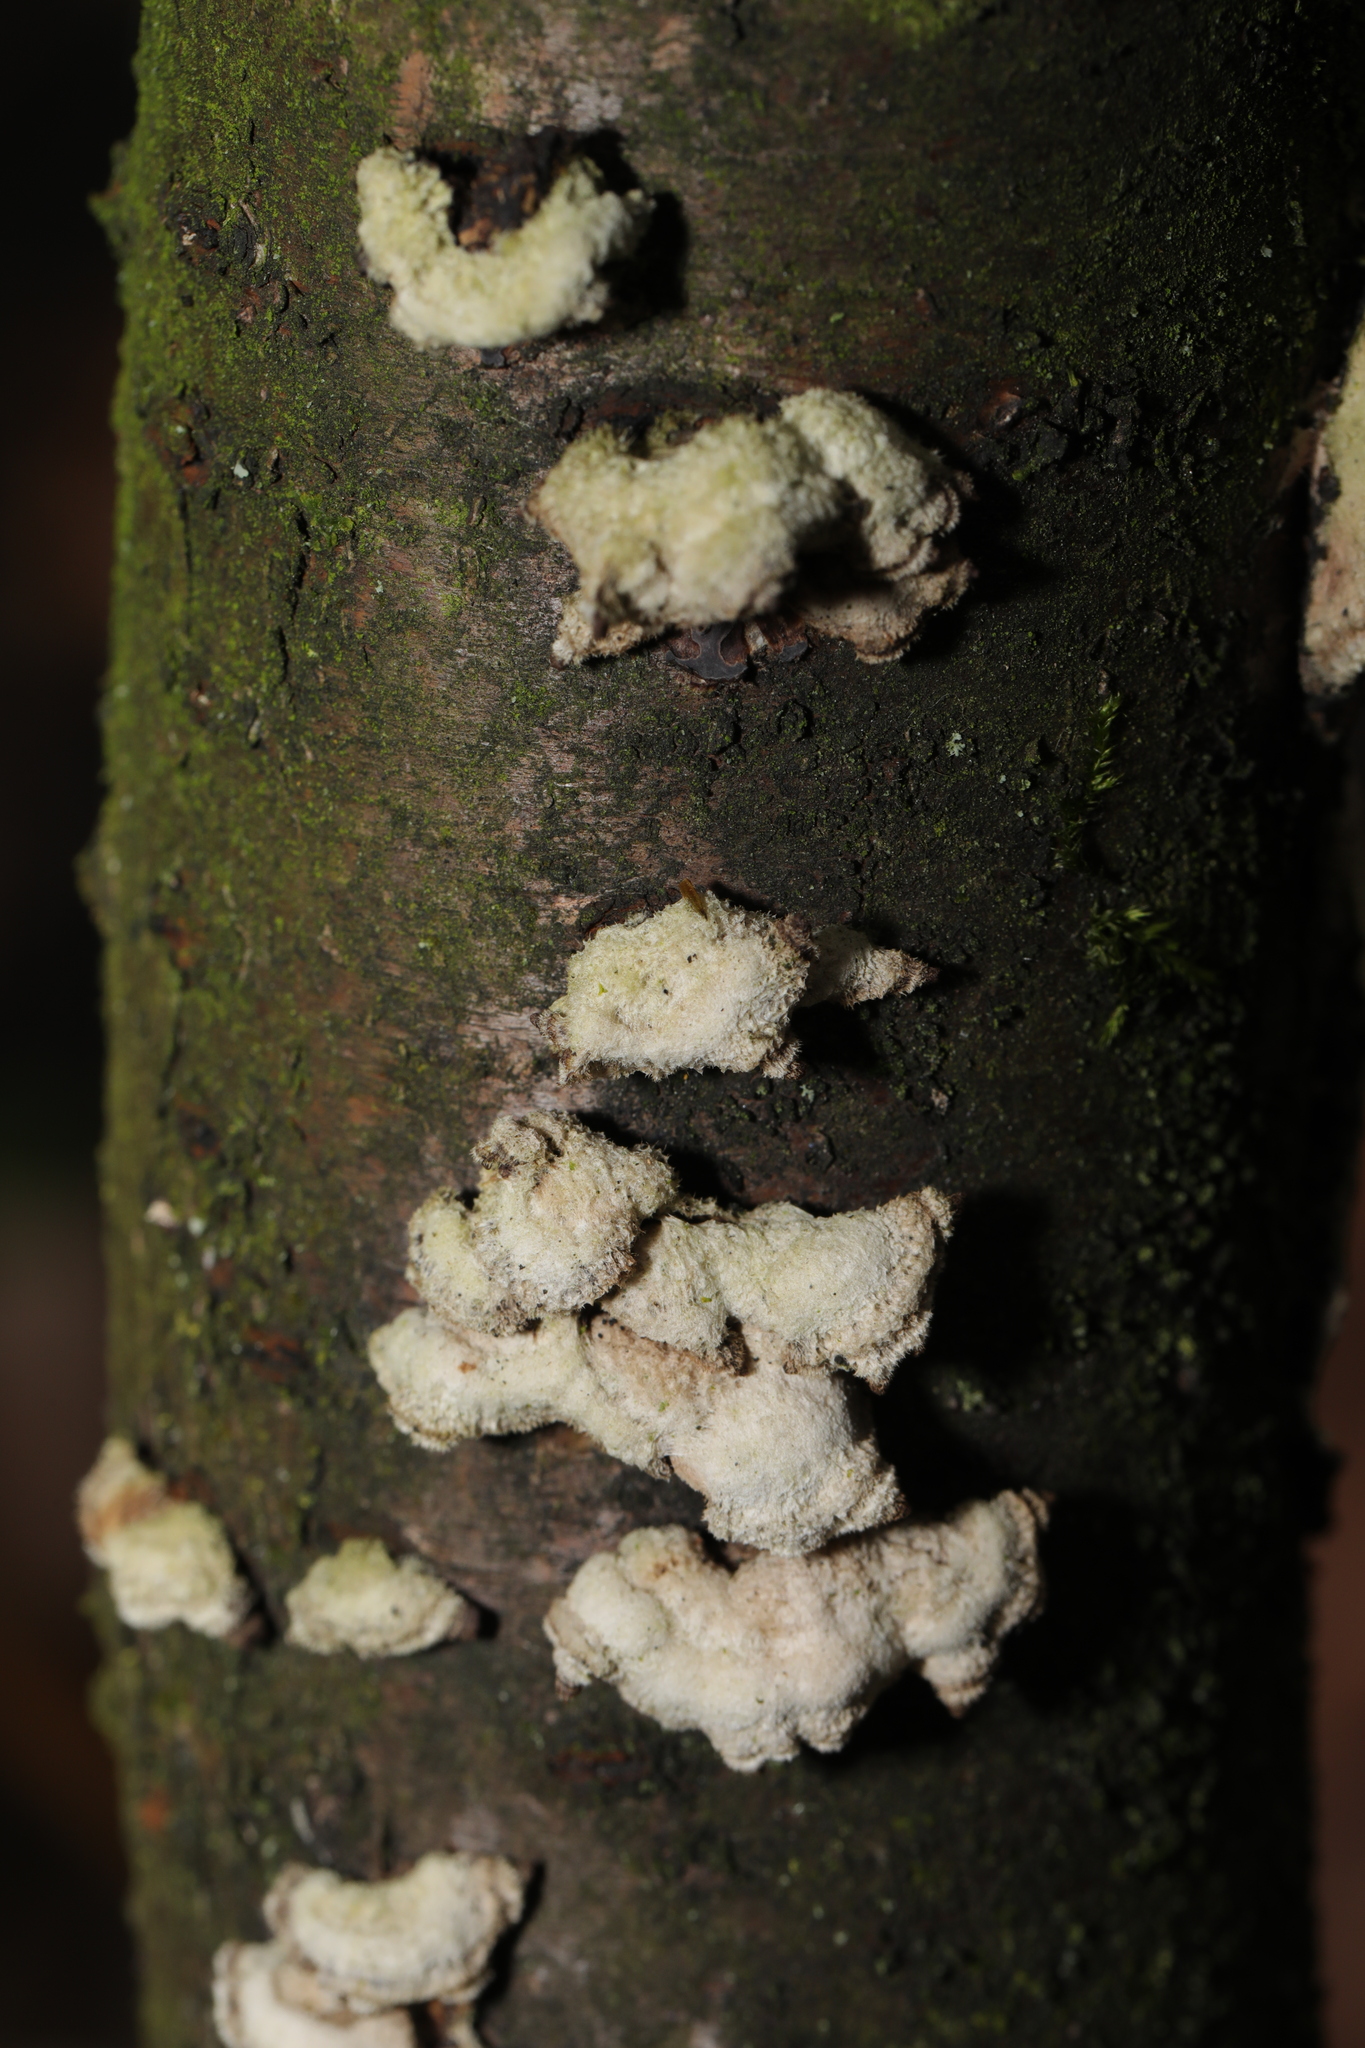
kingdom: Fungi
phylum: Basidiomycota
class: Agaricomycetes
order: Agaricales
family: Schizophyllaceae
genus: Schizophyllum
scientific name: Schizophyllum commune
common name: Common porecrust
